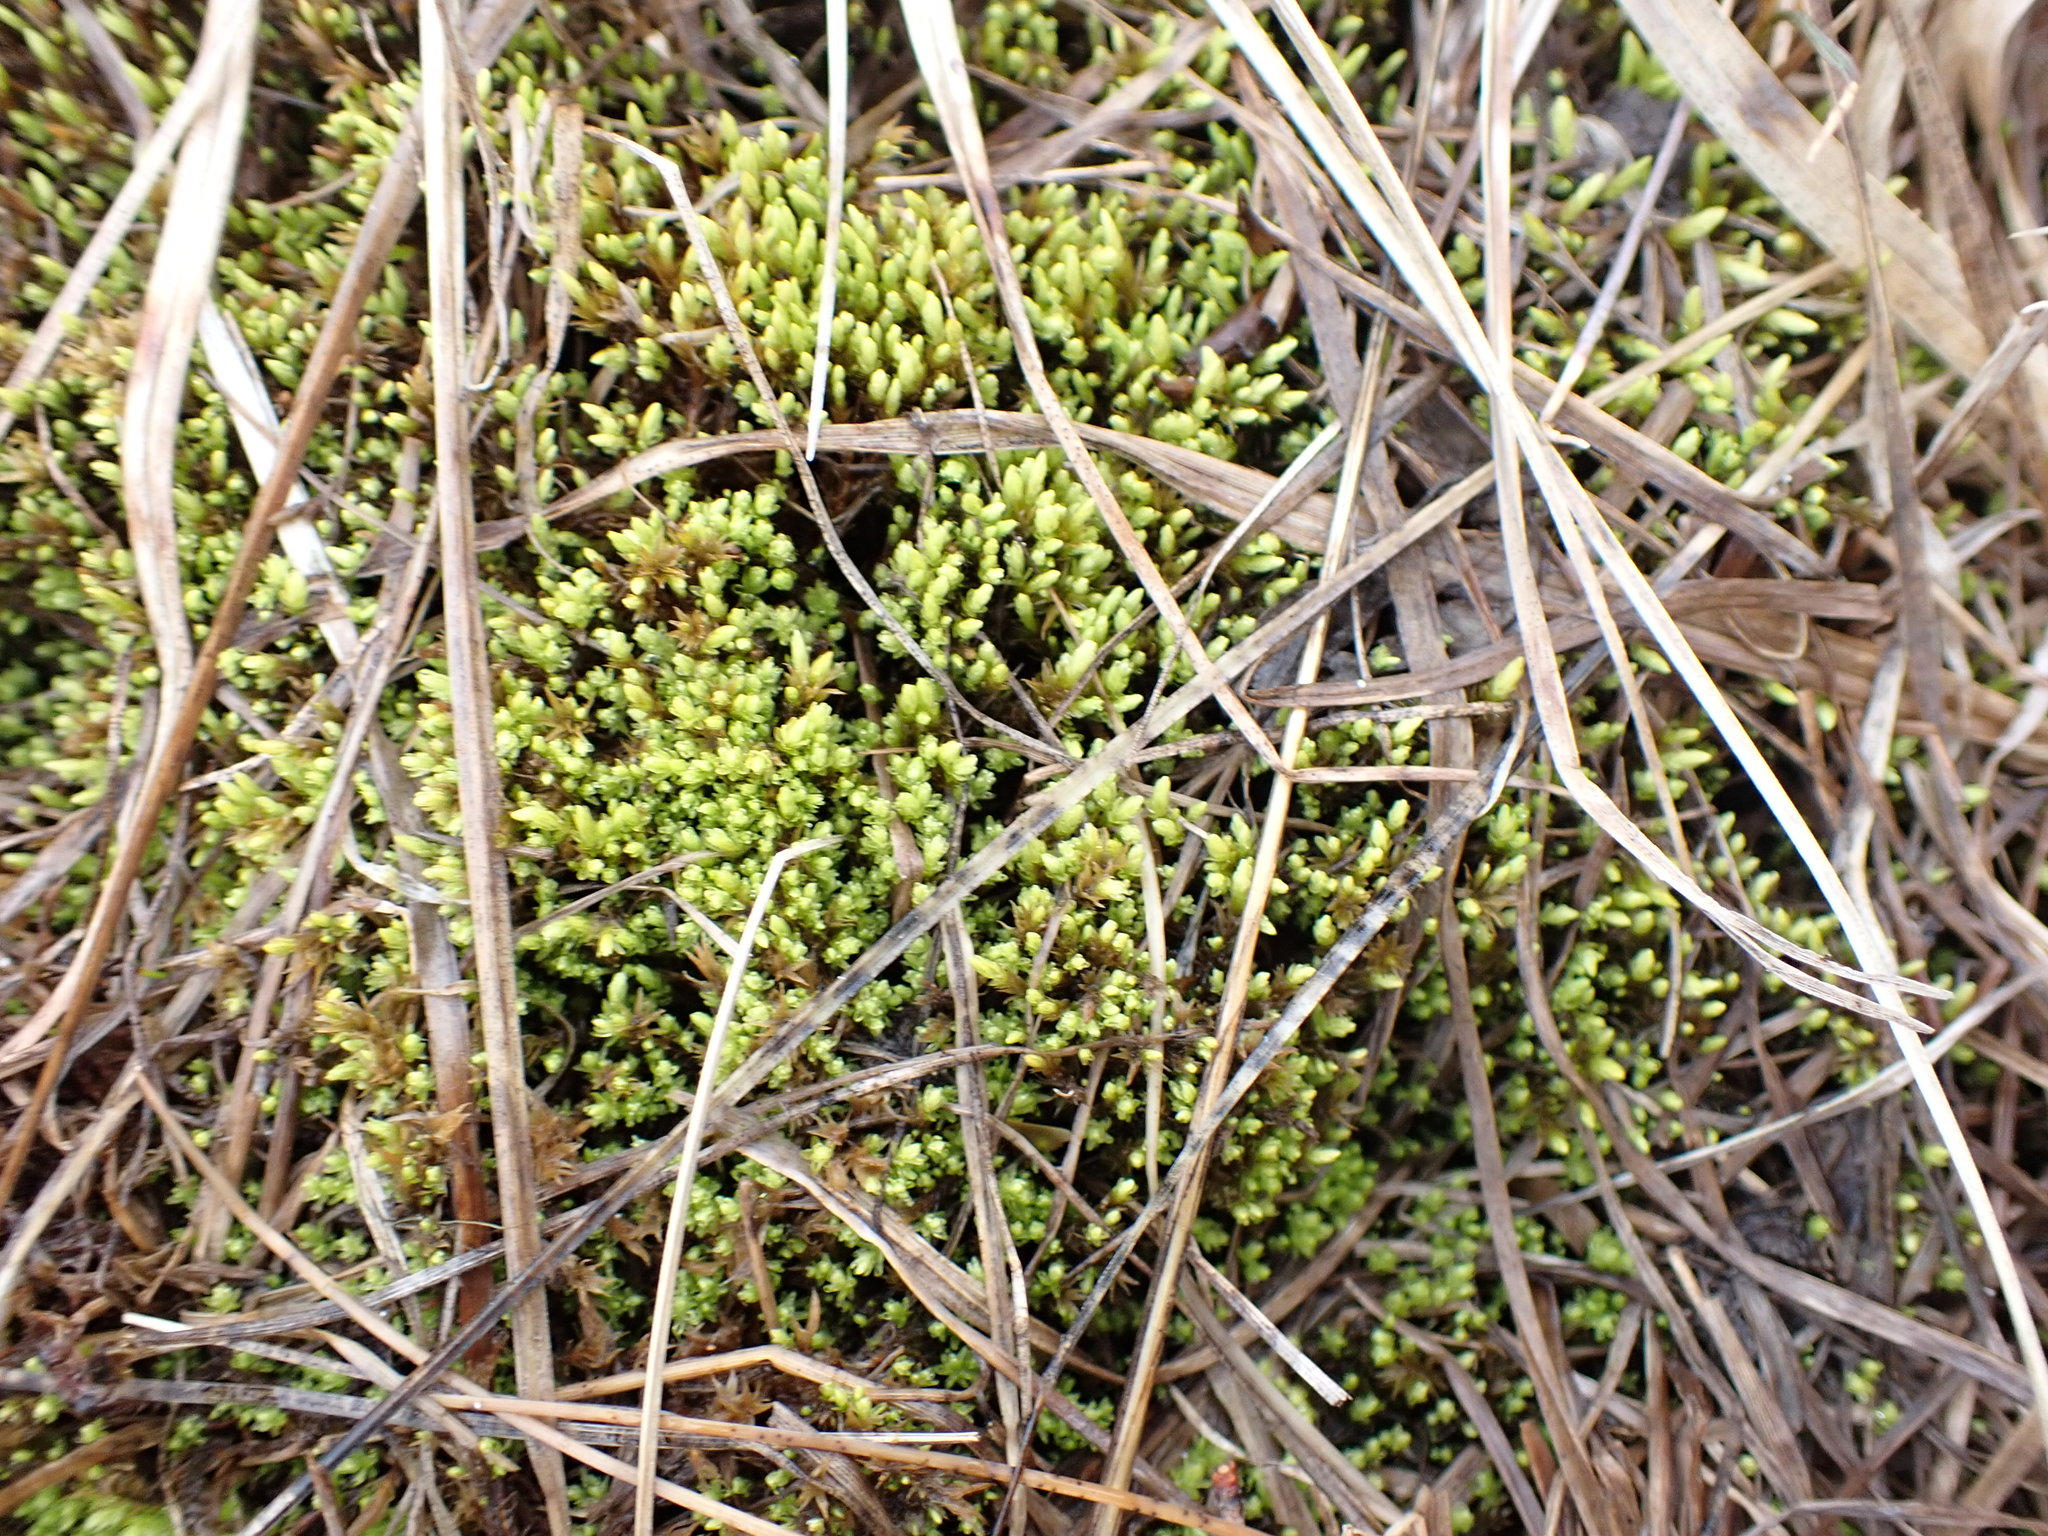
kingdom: Plantae
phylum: Bryophyta
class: Bryopsida
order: Aulacomniales
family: Aulacomniaceae
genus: Aulacomnium
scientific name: Aulacomnium palustre
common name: Bog groove-moss
